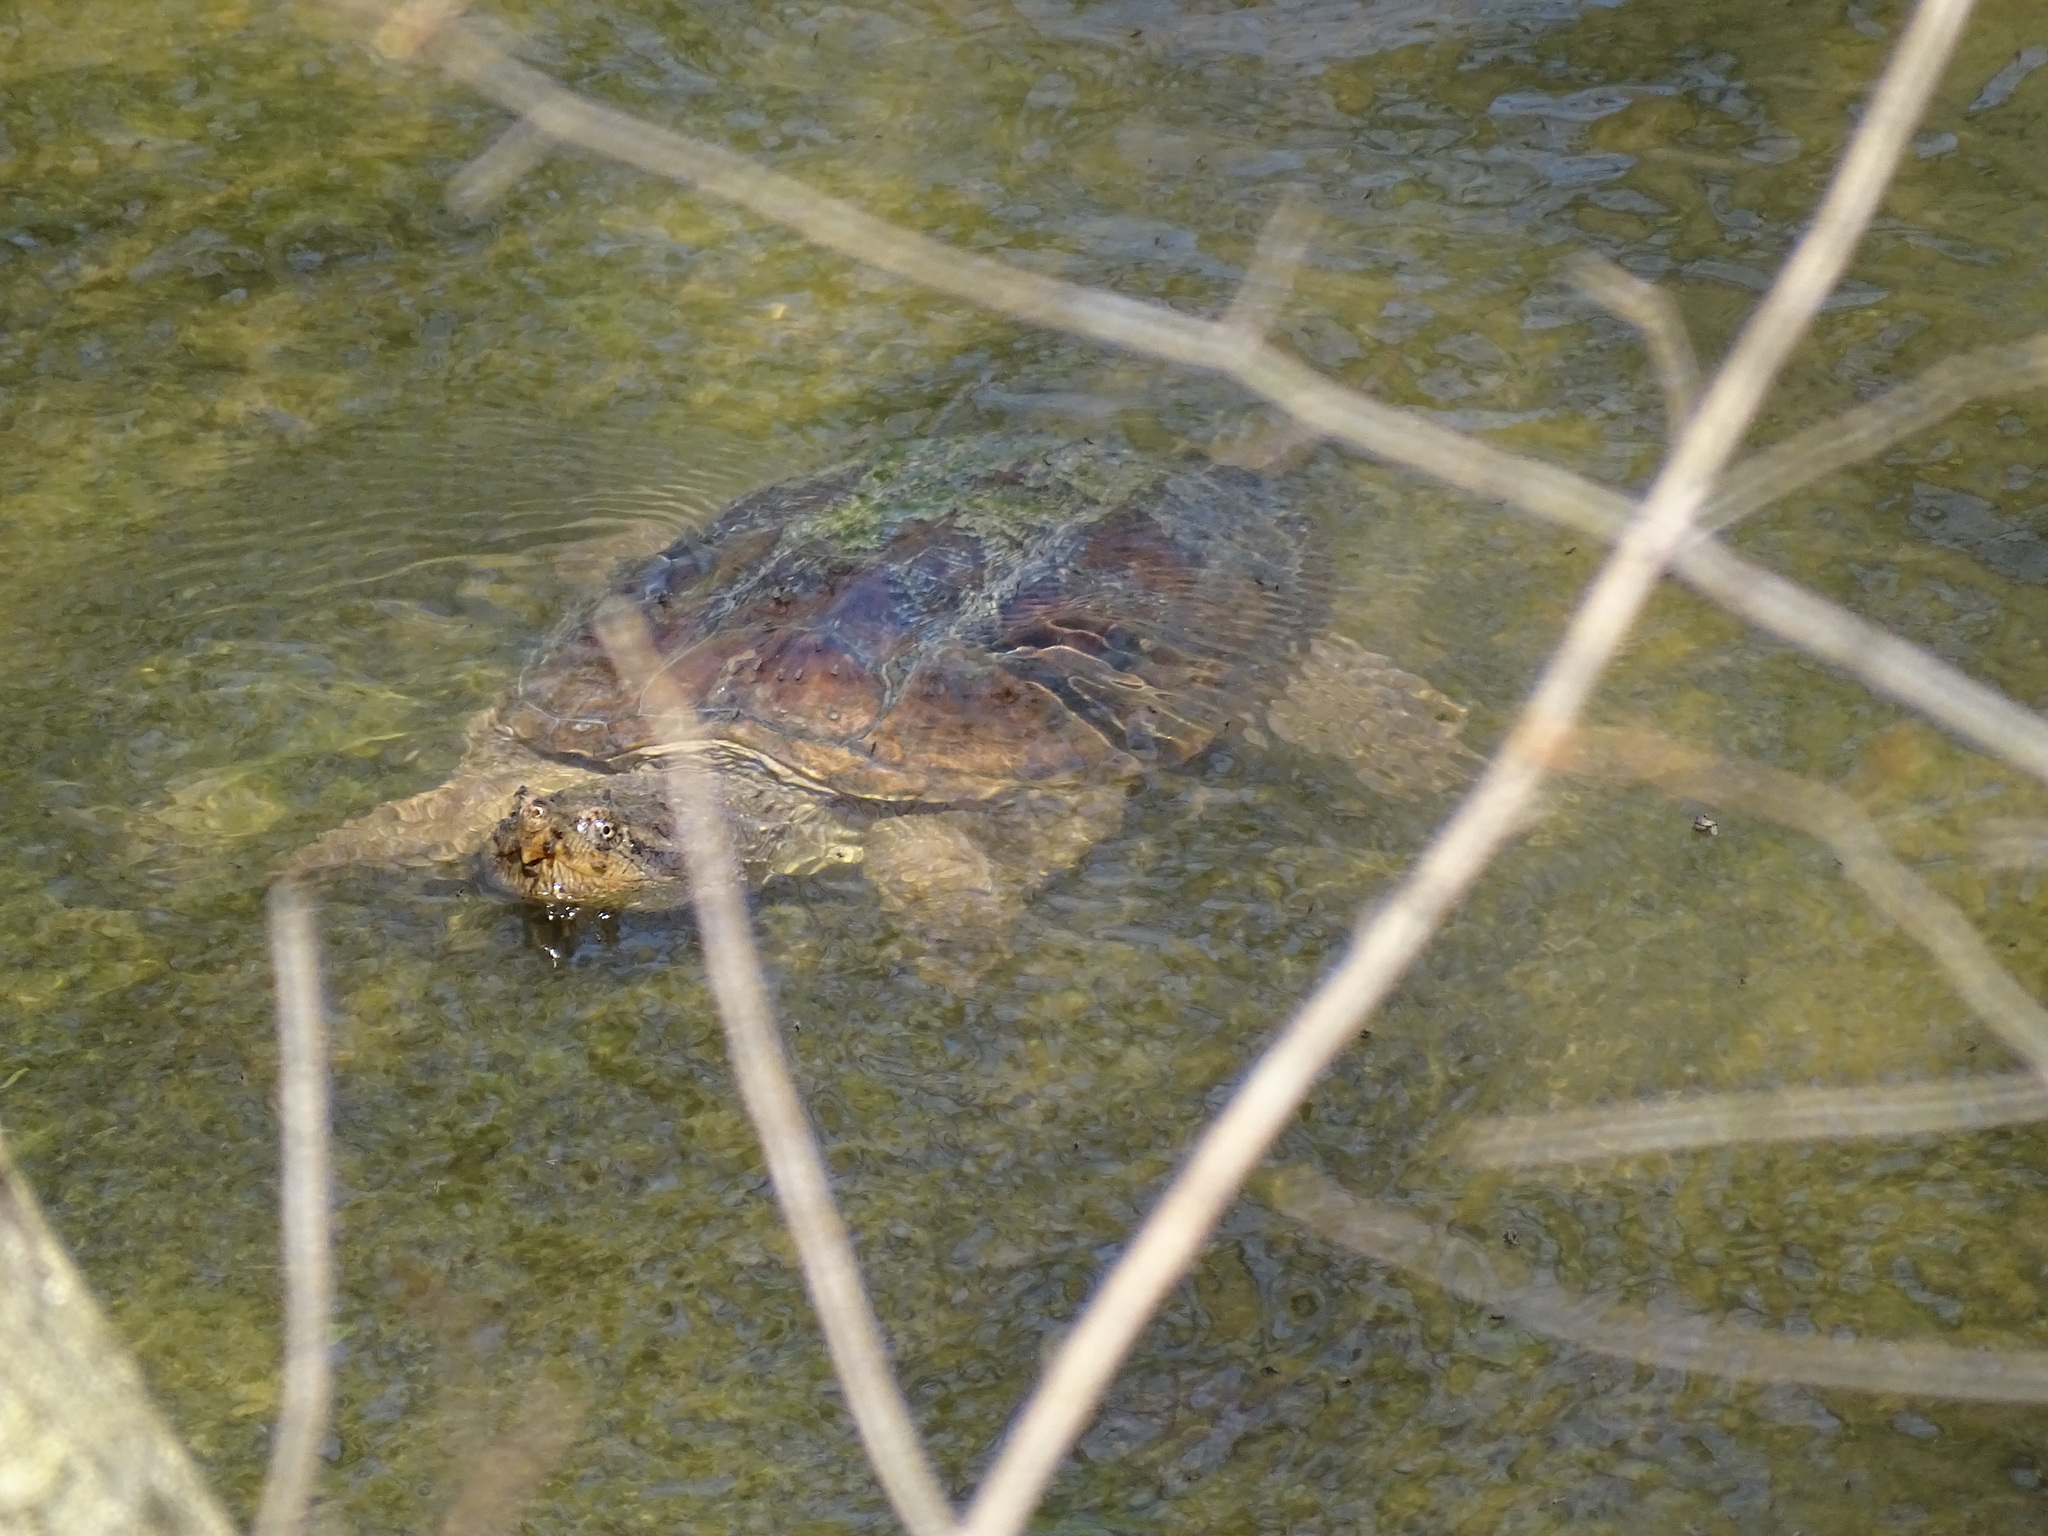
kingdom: Animalia
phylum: Chordata
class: Testudines
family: Chelydridae
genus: Chelydra
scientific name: Chelydra serpentina
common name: Common snapping turtle
